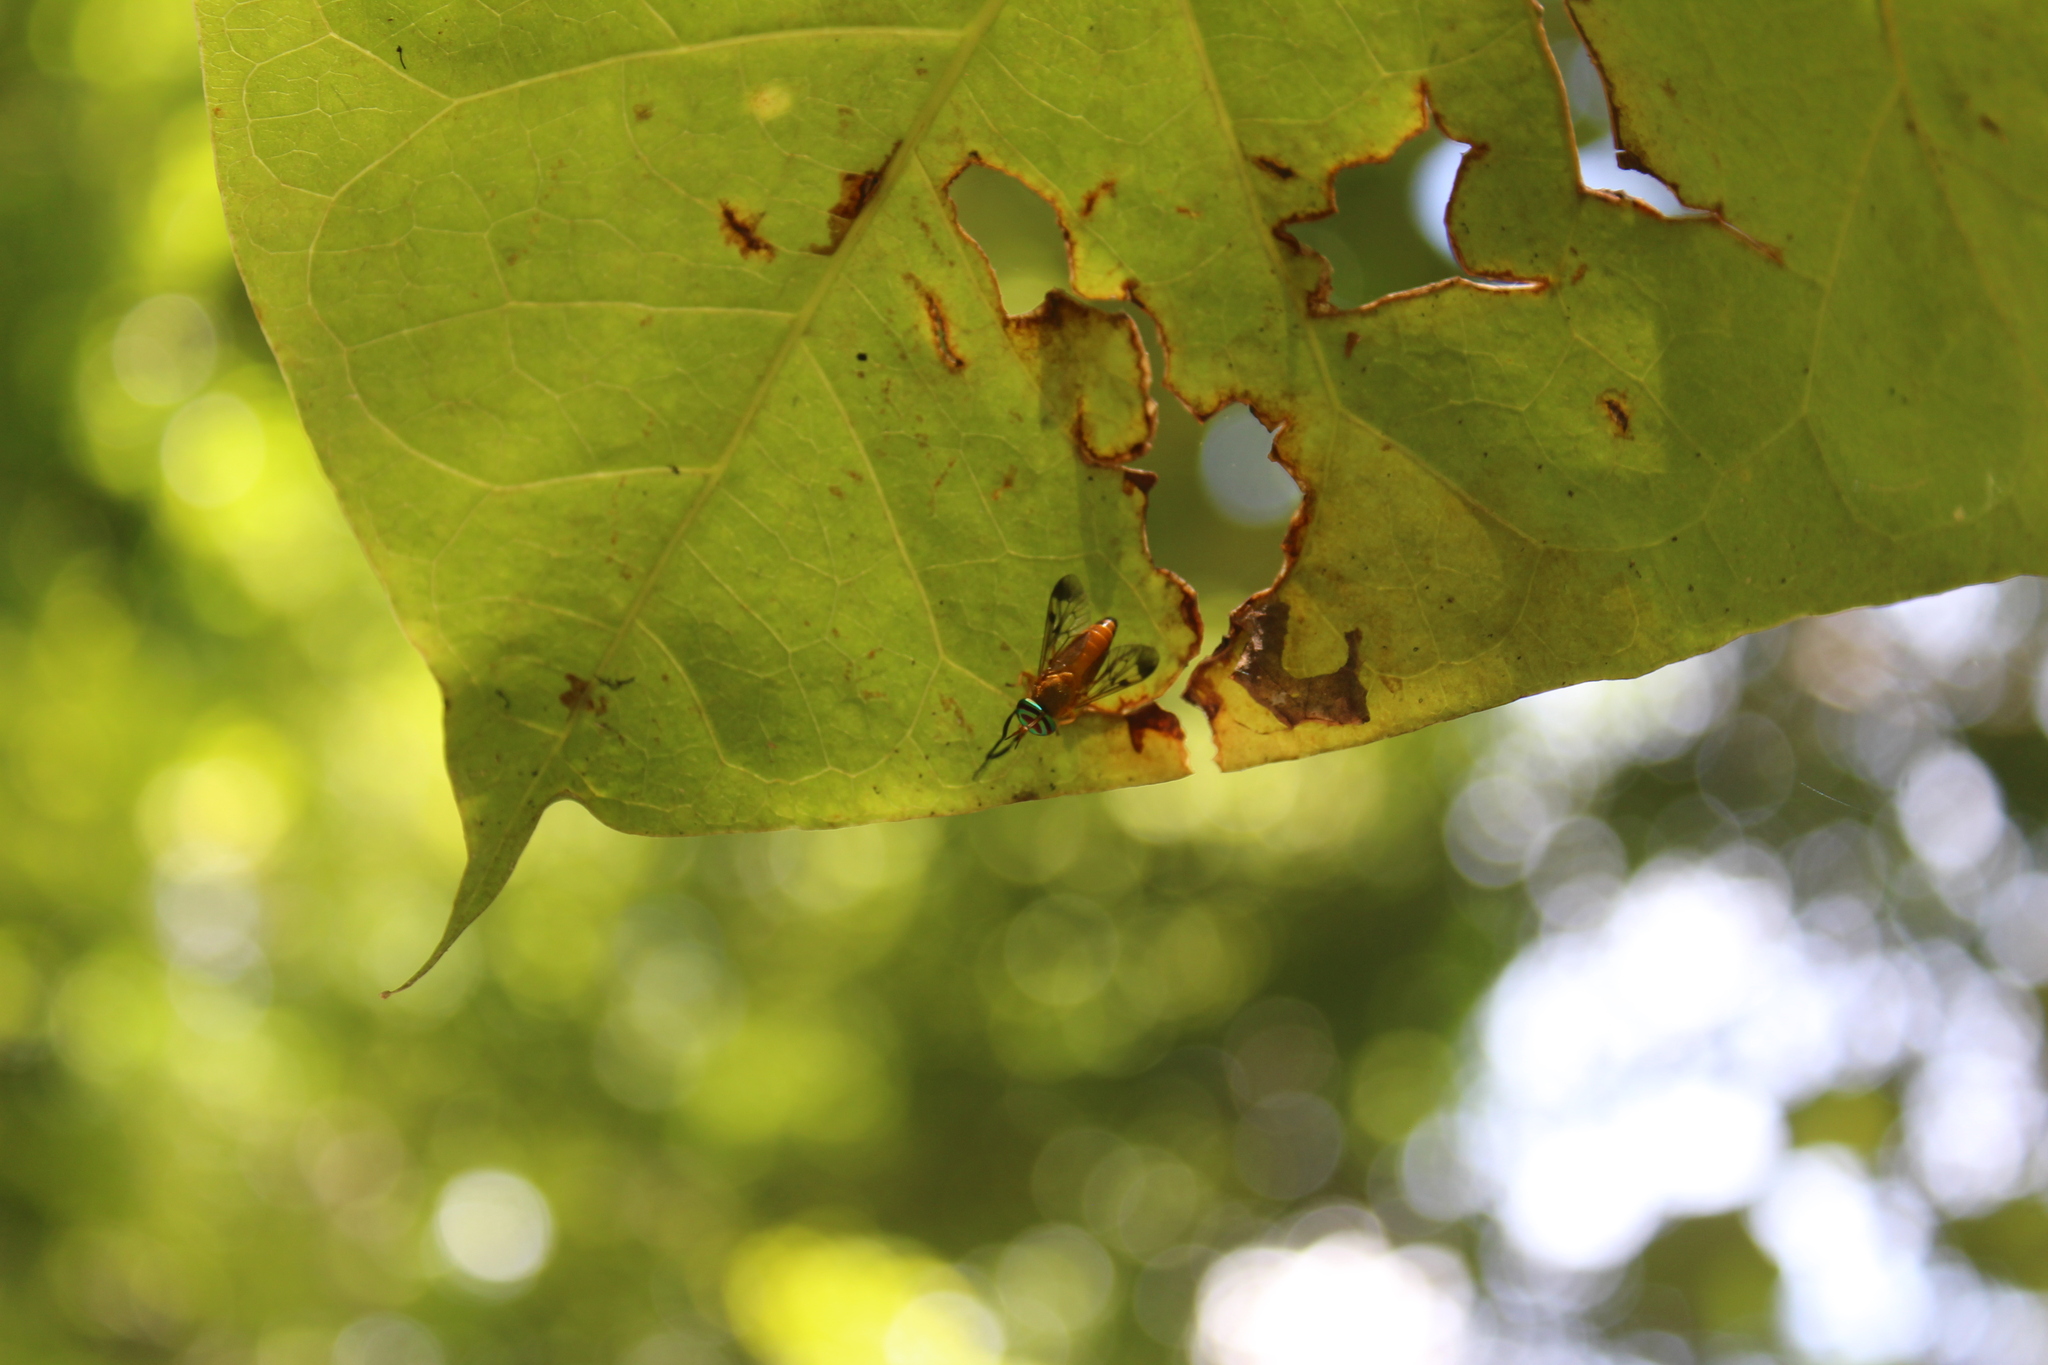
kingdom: Animalia
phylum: Arthropoda
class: Insecta
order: Diptera
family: Tabanidae
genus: Diachlorus
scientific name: Diachlorus ferrugatus
